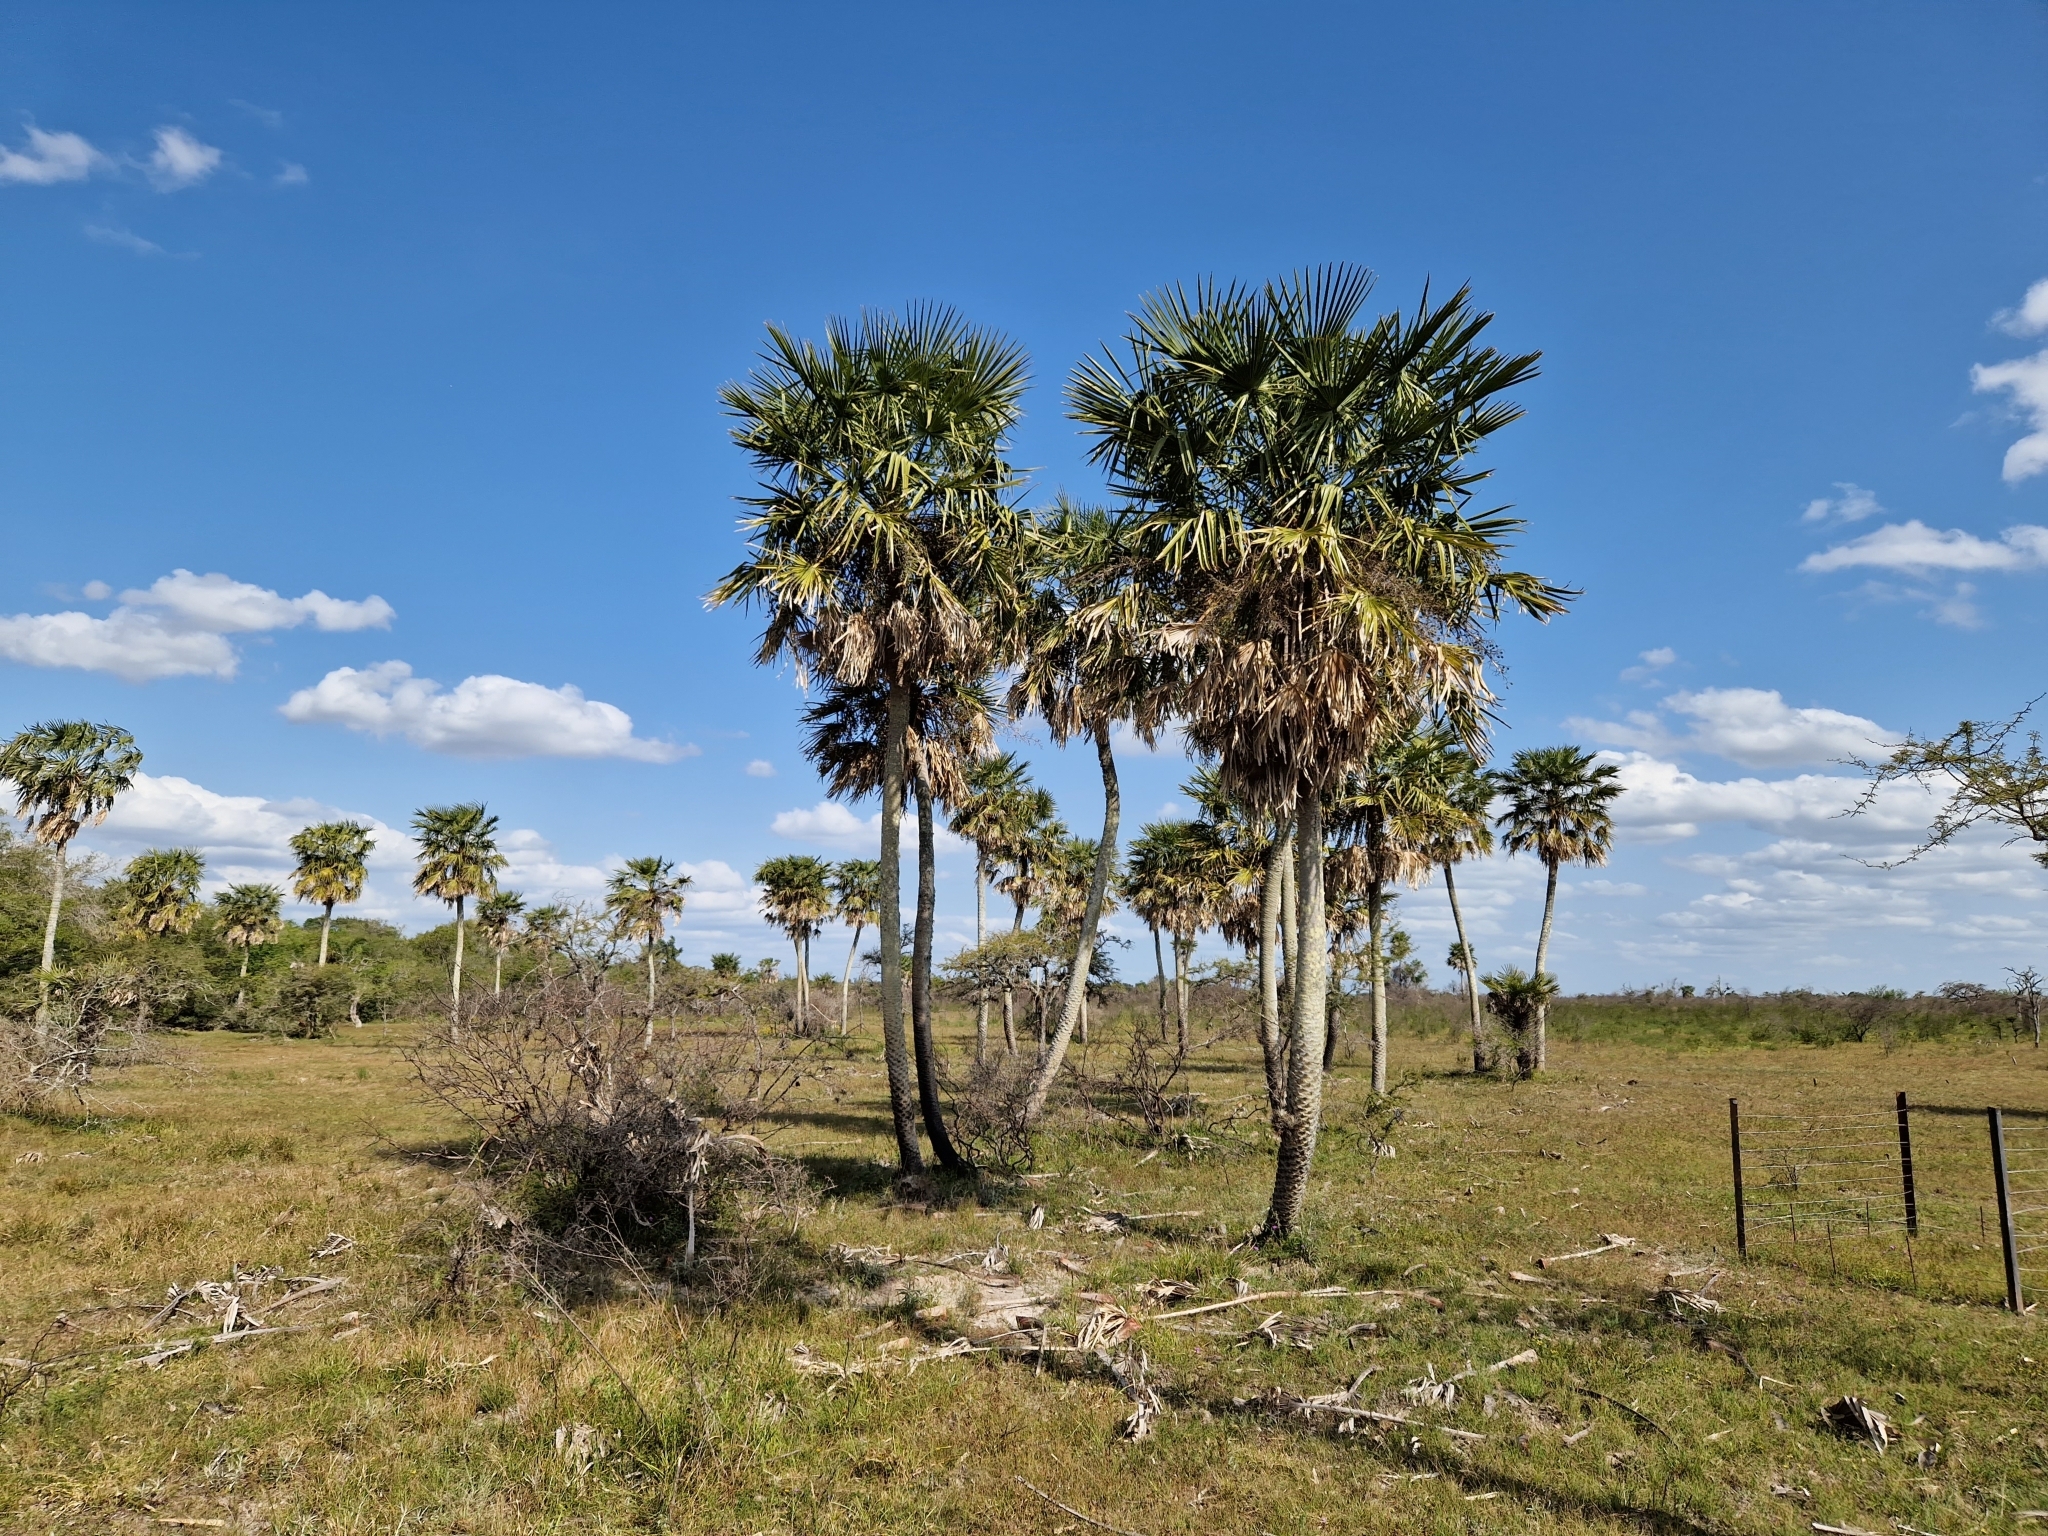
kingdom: Plantae
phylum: Tracheophyta
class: Liliopsida
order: Arecales
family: Arecaceae
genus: Copernicia
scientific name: Copernicia alba
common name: Caranday palm
